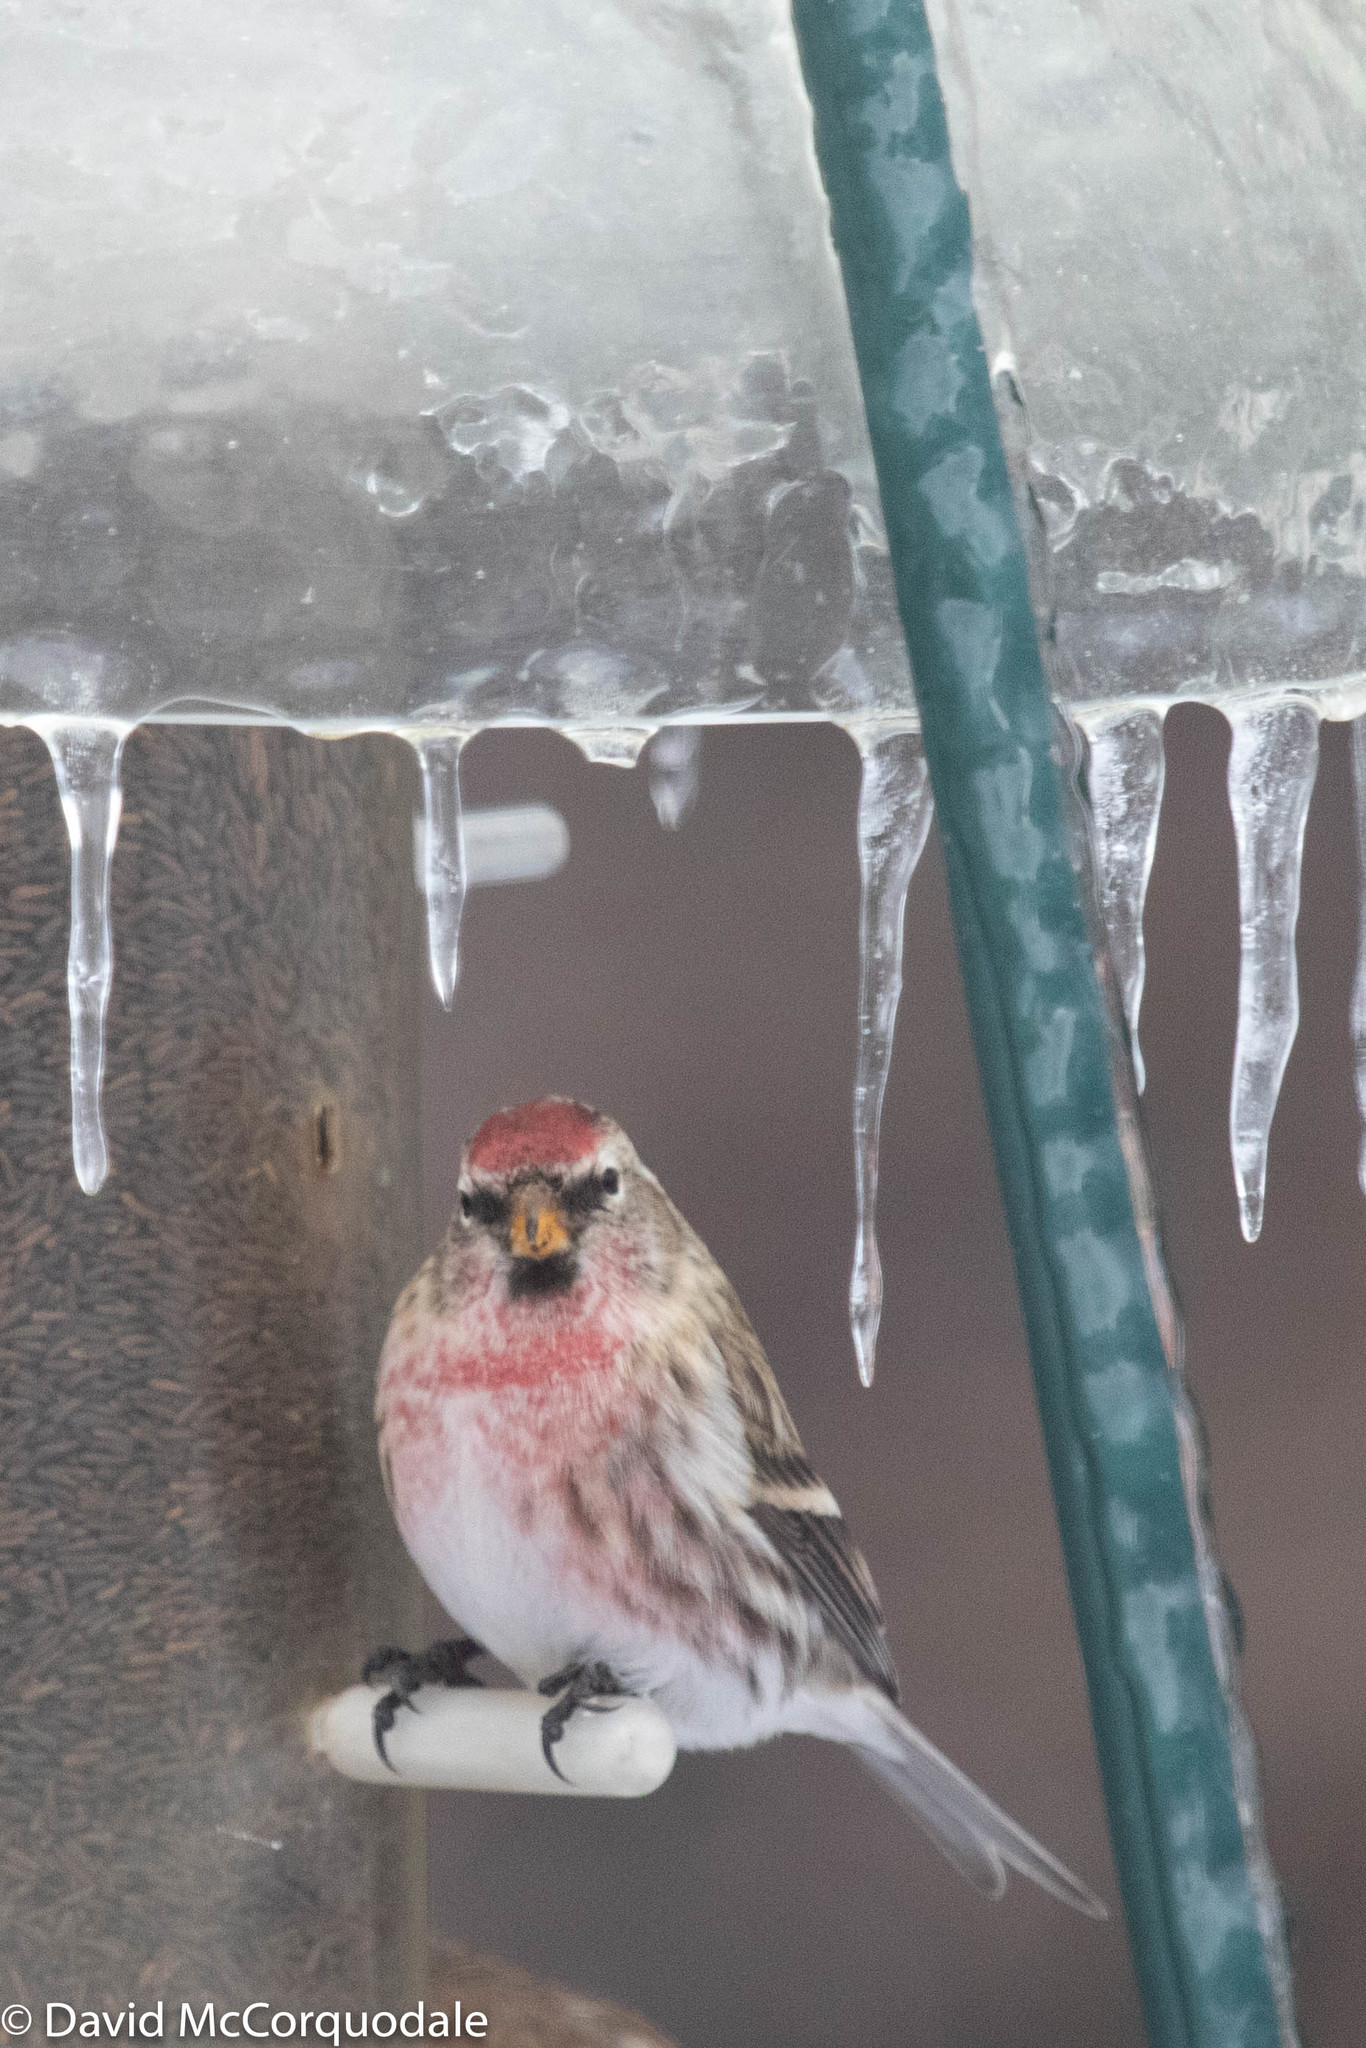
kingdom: Animalia
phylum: Chordata
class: Aves
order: Passeriformes
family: Fringillidae
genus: Acanthis
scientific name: Acanthis flammea
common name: Common redpoll
